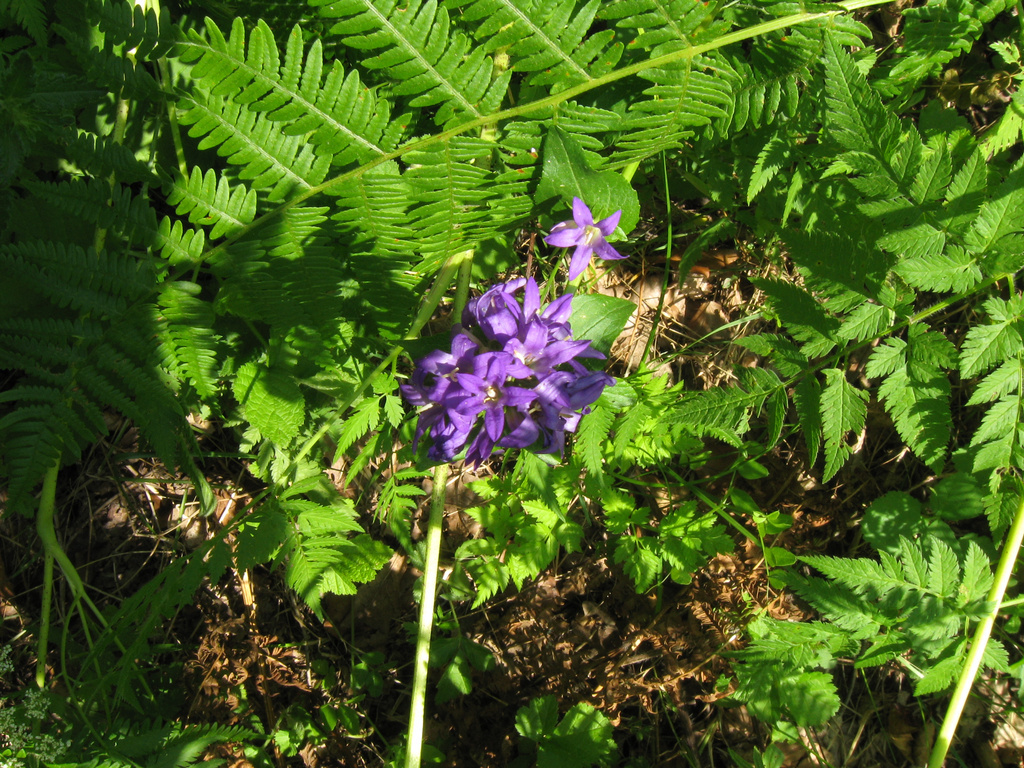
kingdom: Plantae
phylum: Tracheophyta
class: Magnoliopsida
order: Asterales
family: Campanulaceae
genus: Campanula
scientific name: Campanula glomerata
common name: Clustered bellflower
